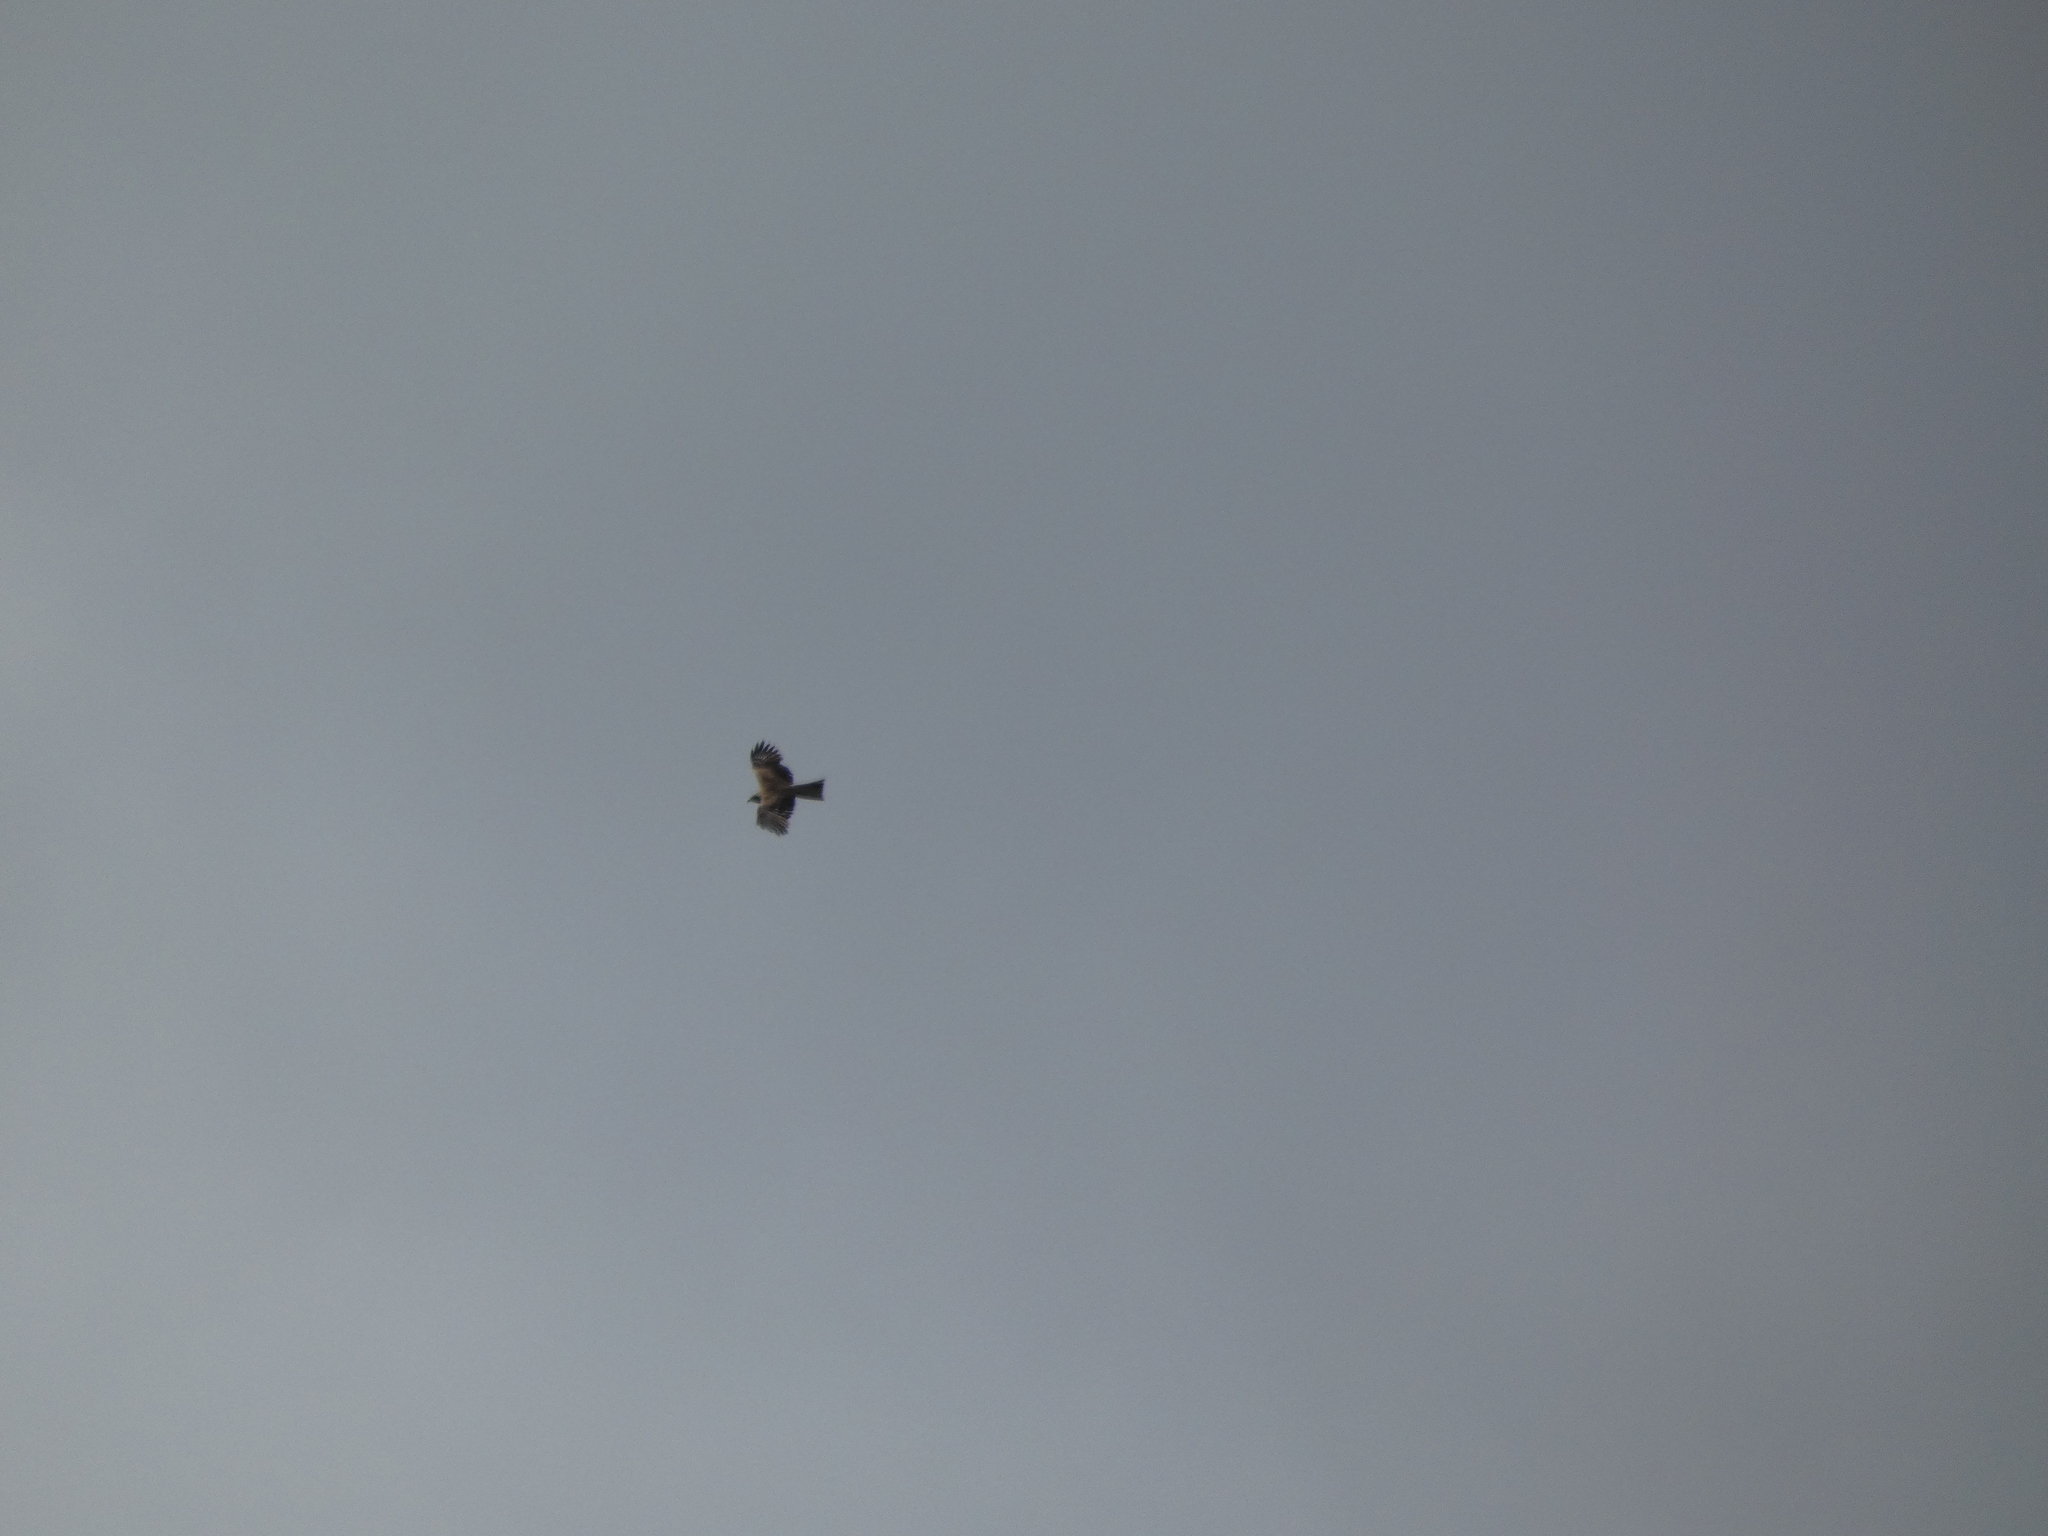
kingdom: Animalia
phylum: Chordata
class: Aves
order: Accipitriformes
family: Accipitridae
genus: Milvus
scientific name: Milvus migrans
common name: Black kite
